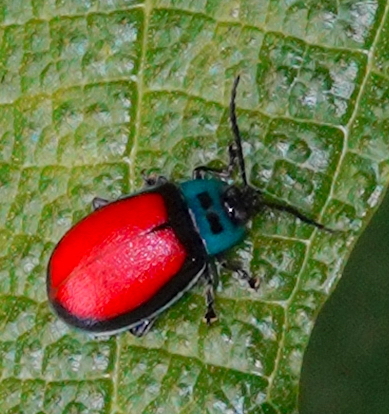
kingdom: Animalia
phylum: Arthropoda
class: Insecta
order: Coleoptera
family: Chrysomelidae
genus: Aspicela
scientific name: Aspicela
